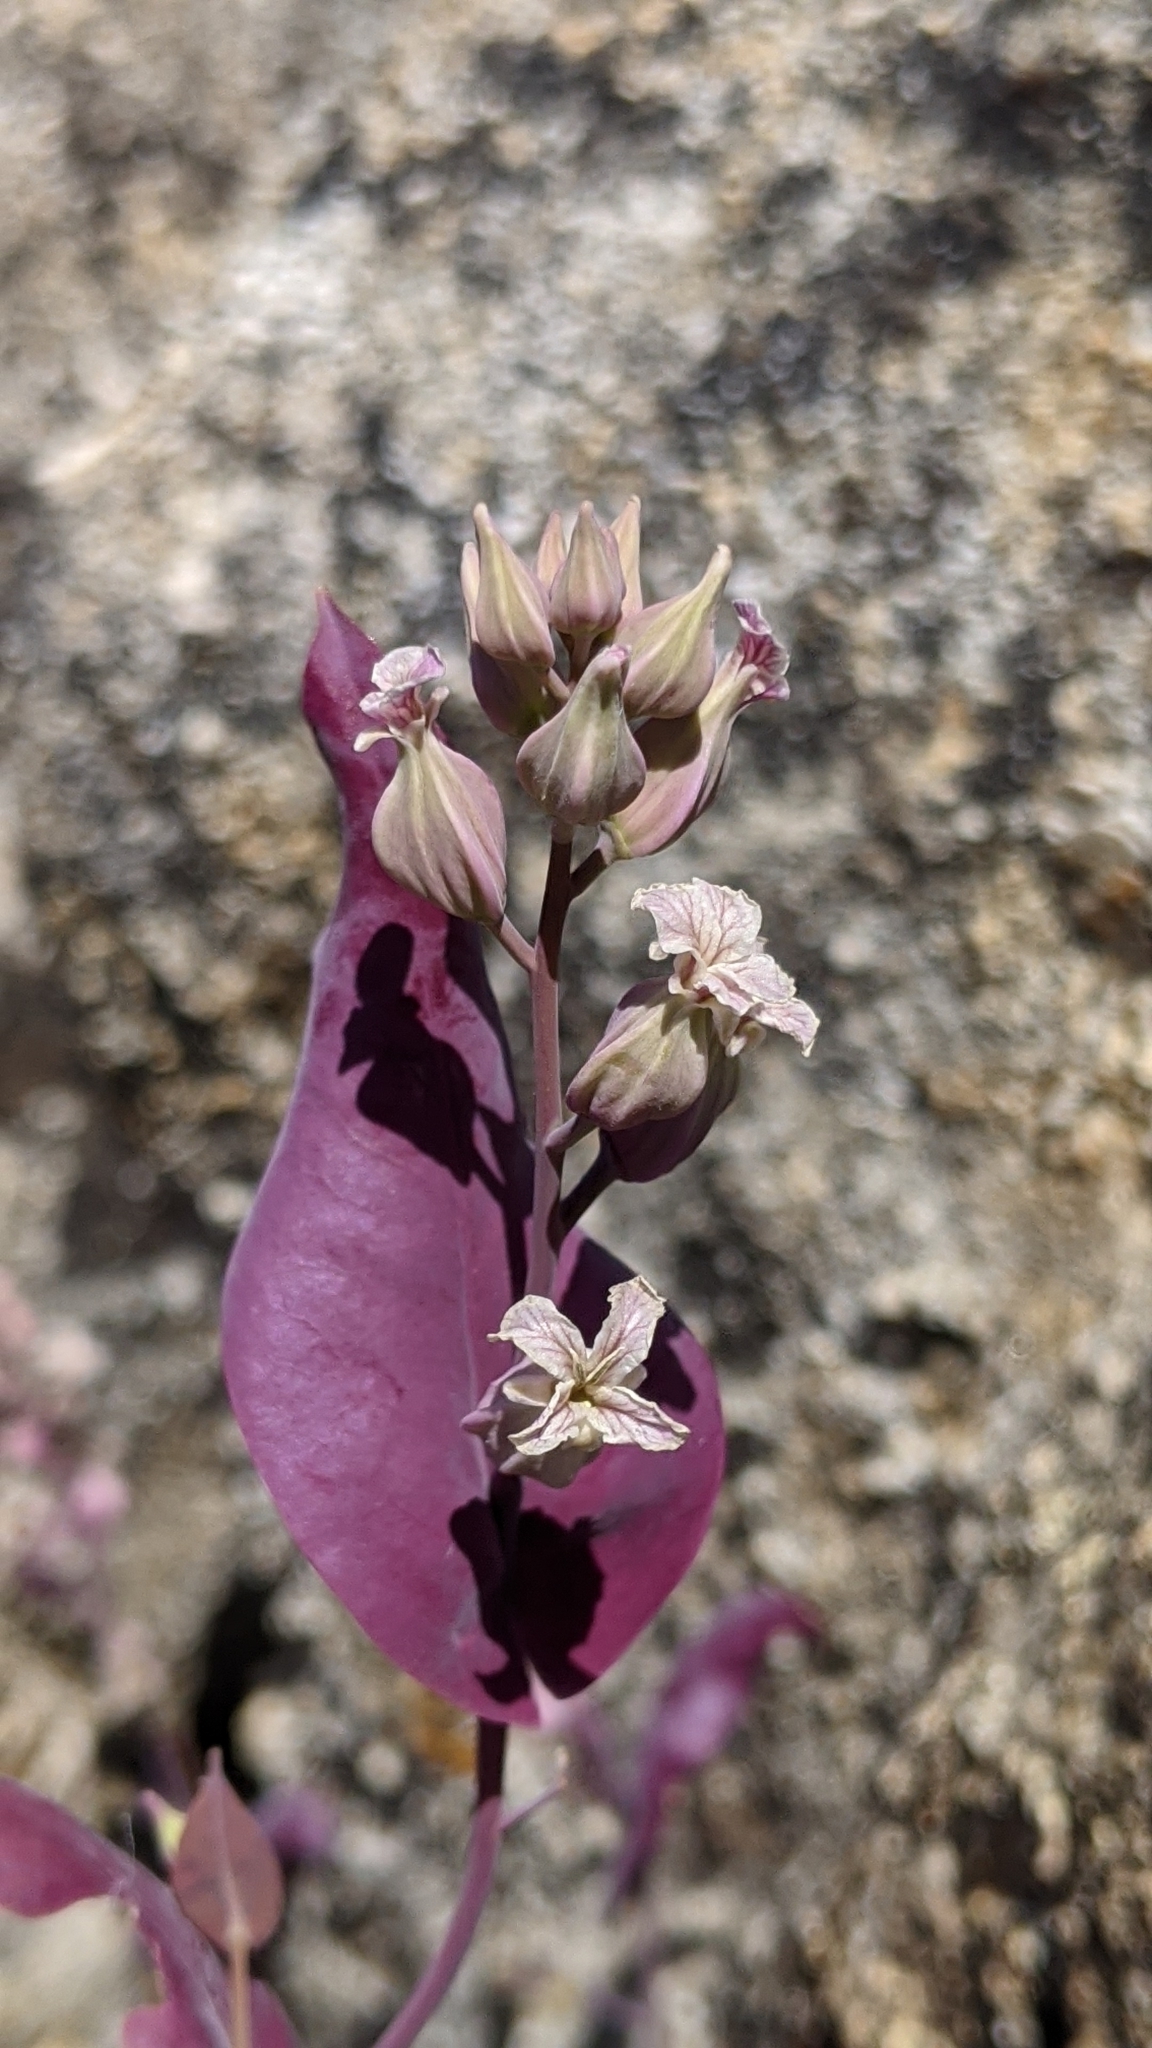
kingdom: Plantae
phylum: Tracheophyta
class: Magnoliopsida
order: Brassicales
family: Brassicaceae
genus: Streptanthus
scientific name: Streptanthus farnsworthianus
